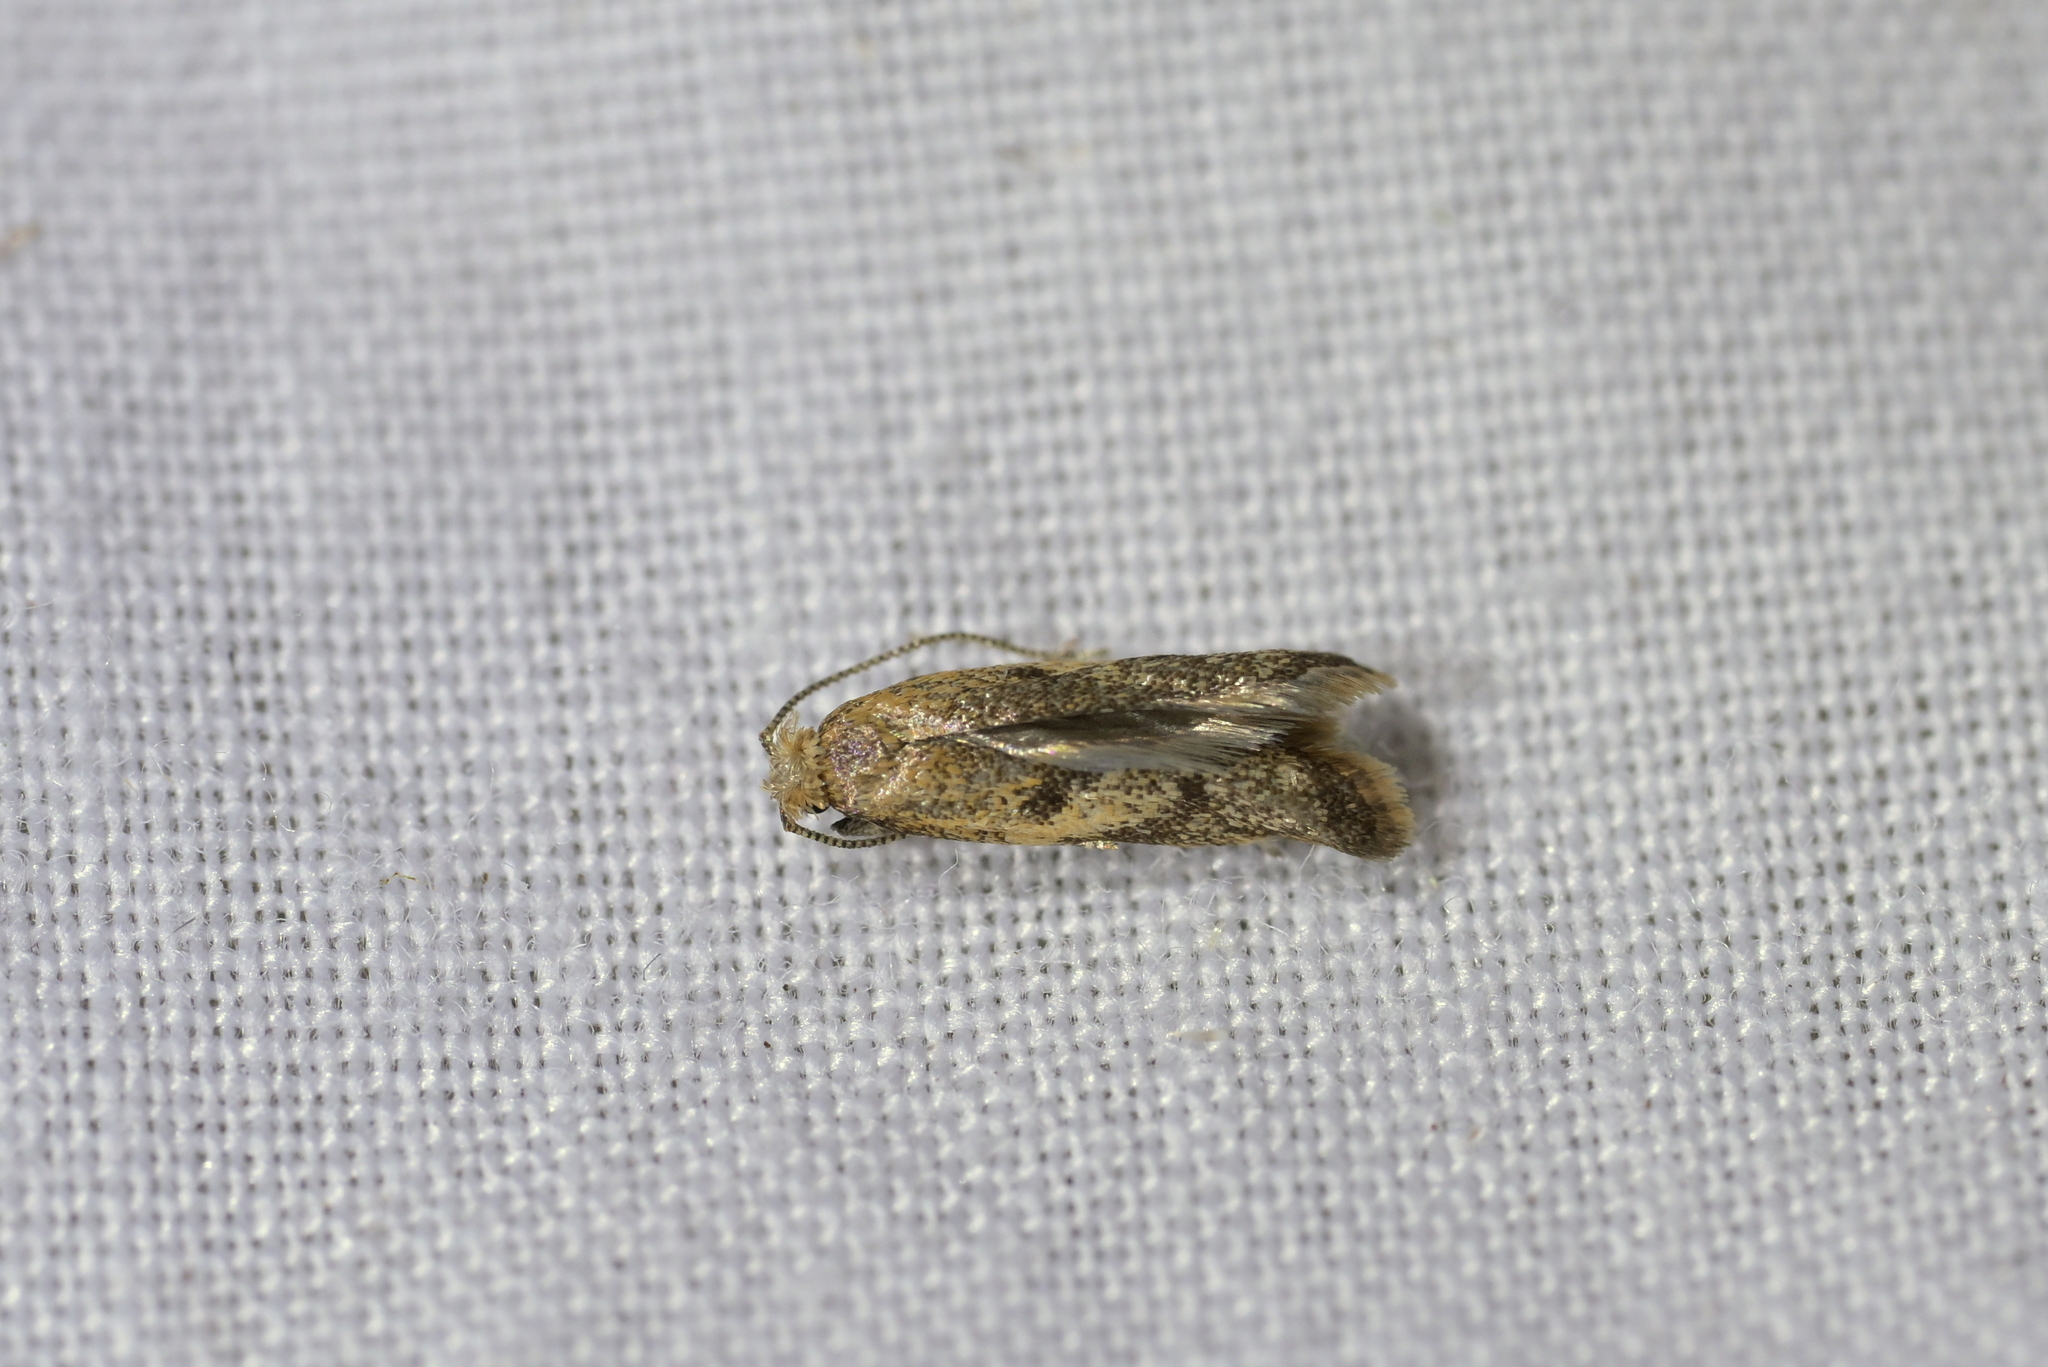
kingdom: Animalia
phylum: Arthropoda
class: Insecta
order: Lepidoptera
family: Oecophoridae
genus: Gymnobathra
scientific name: Gymnobathra tholodella
